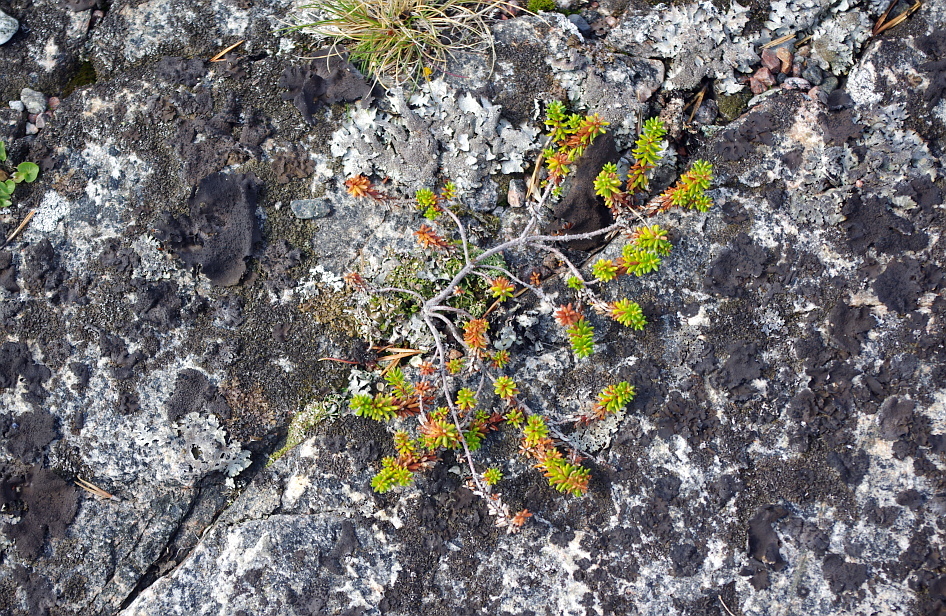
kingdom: Plantae
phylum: Tracheophyta
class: Magnoliopsida
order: Ericales
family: Ericaceae
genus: Empetrum
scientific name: Empetrum nigrum
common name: Black crowberry
